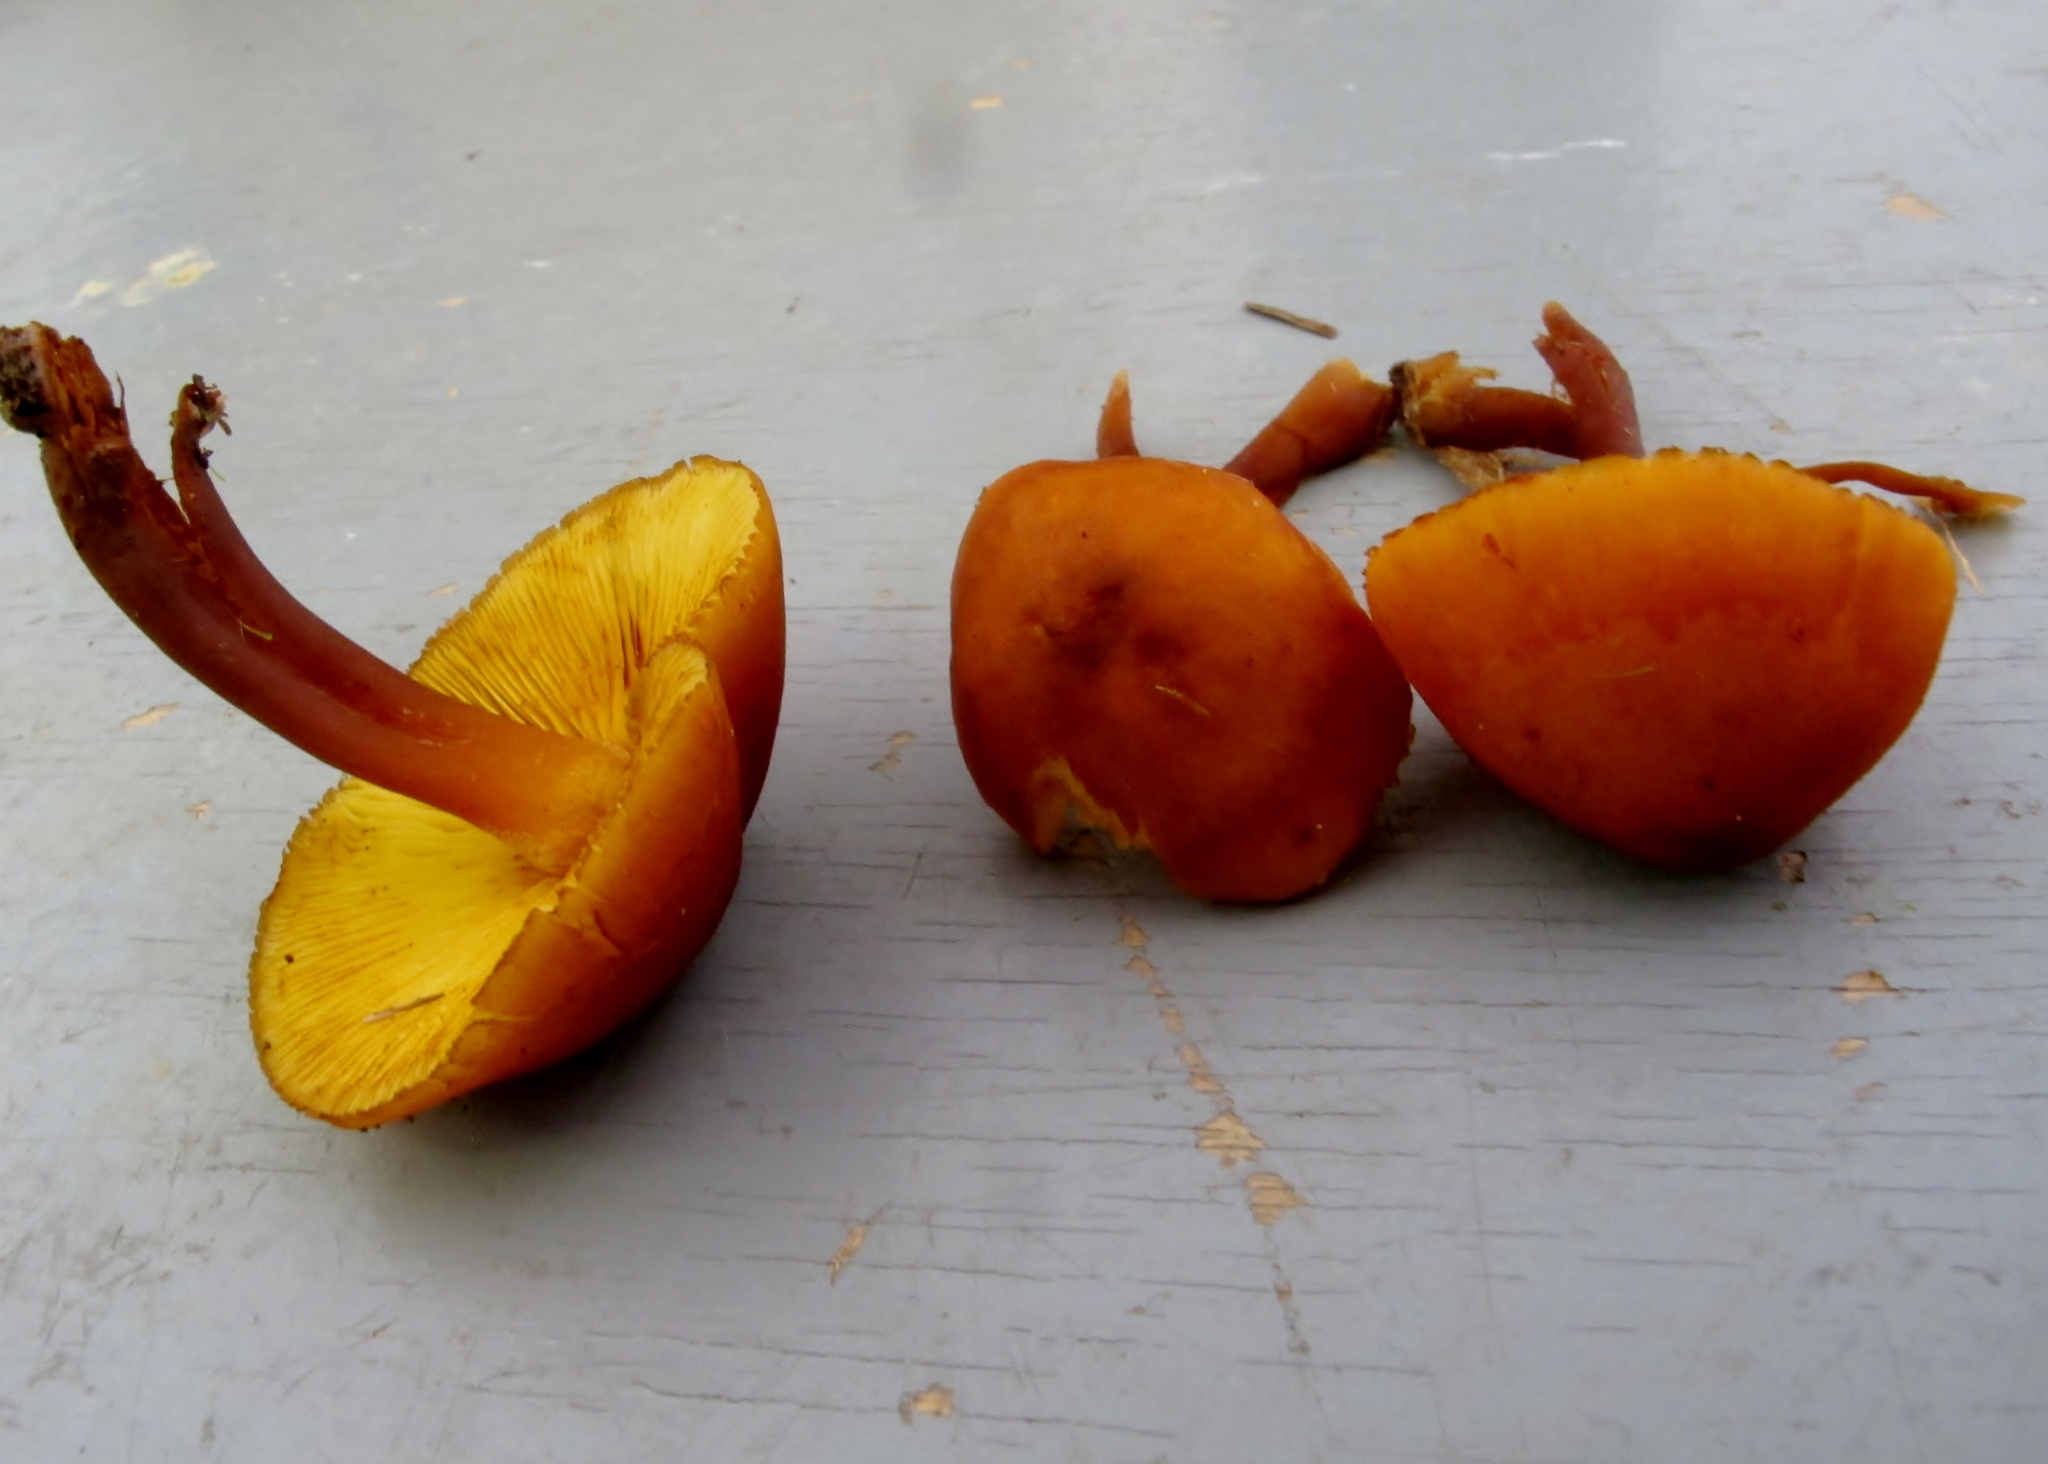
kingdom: Fungi
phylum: Basidiomycota
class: Agaricomycetes
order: Agaricales
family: Hymenogastraceae
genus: Gymnopilus
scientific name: Gymnopilus bellulus
